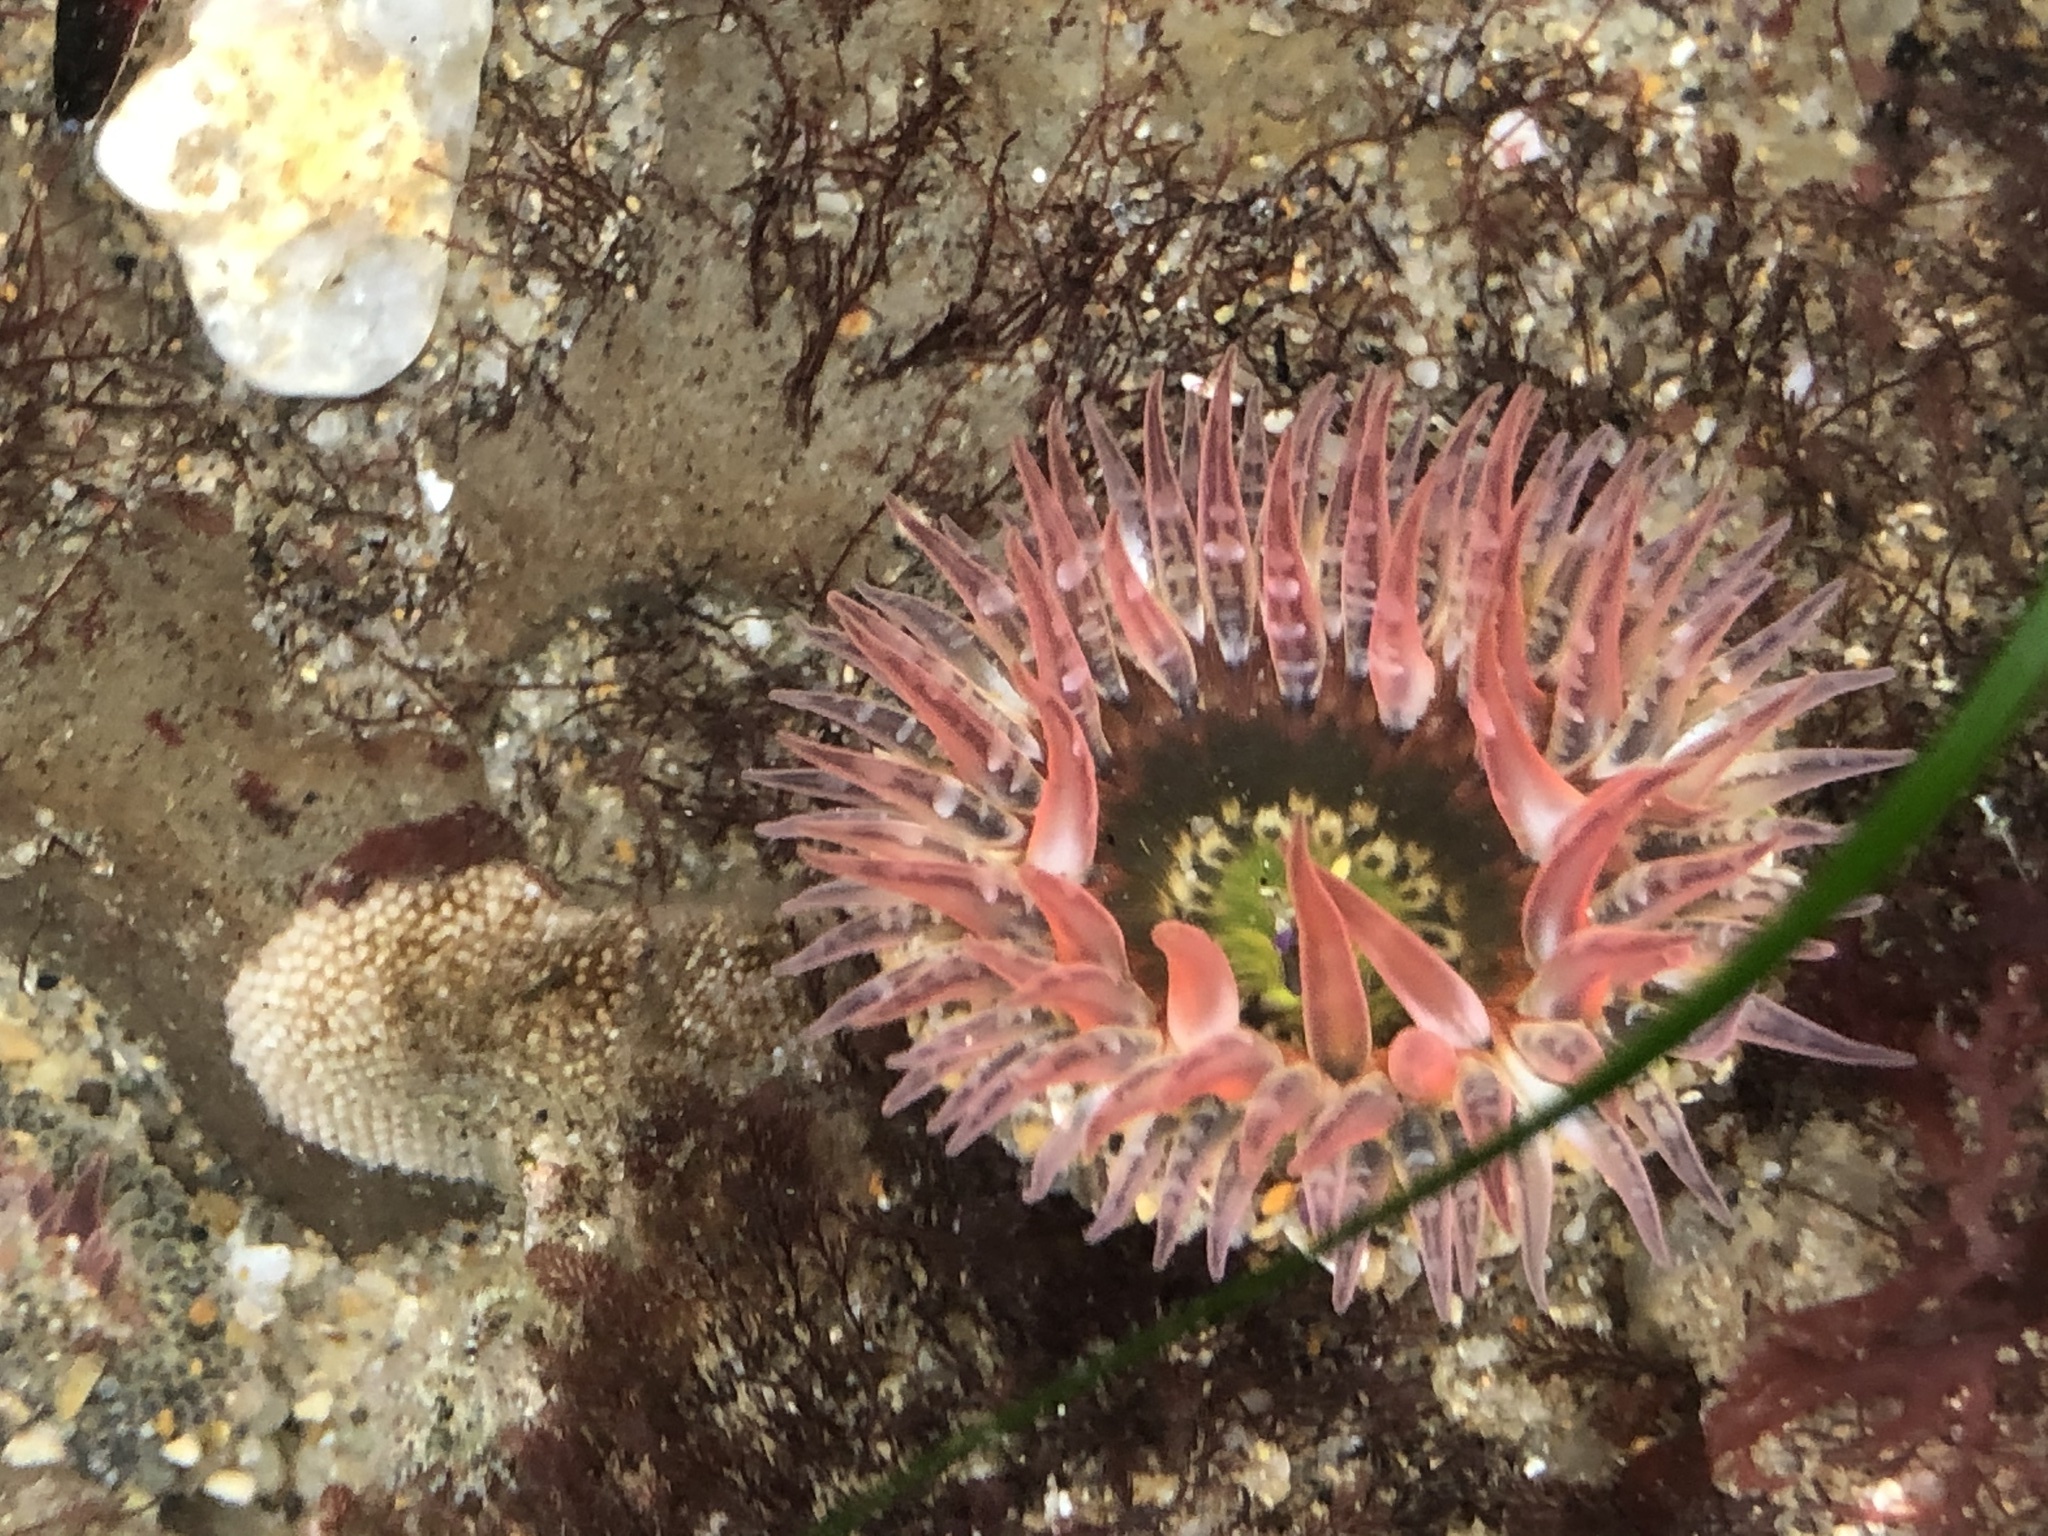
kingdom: Animalia
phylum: Cnidaria
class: Anthozoa
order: Actiniaria
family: Actiniidae
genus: Anthopleura
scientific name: Anthopleura artemisia
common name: Buried sea anemone
